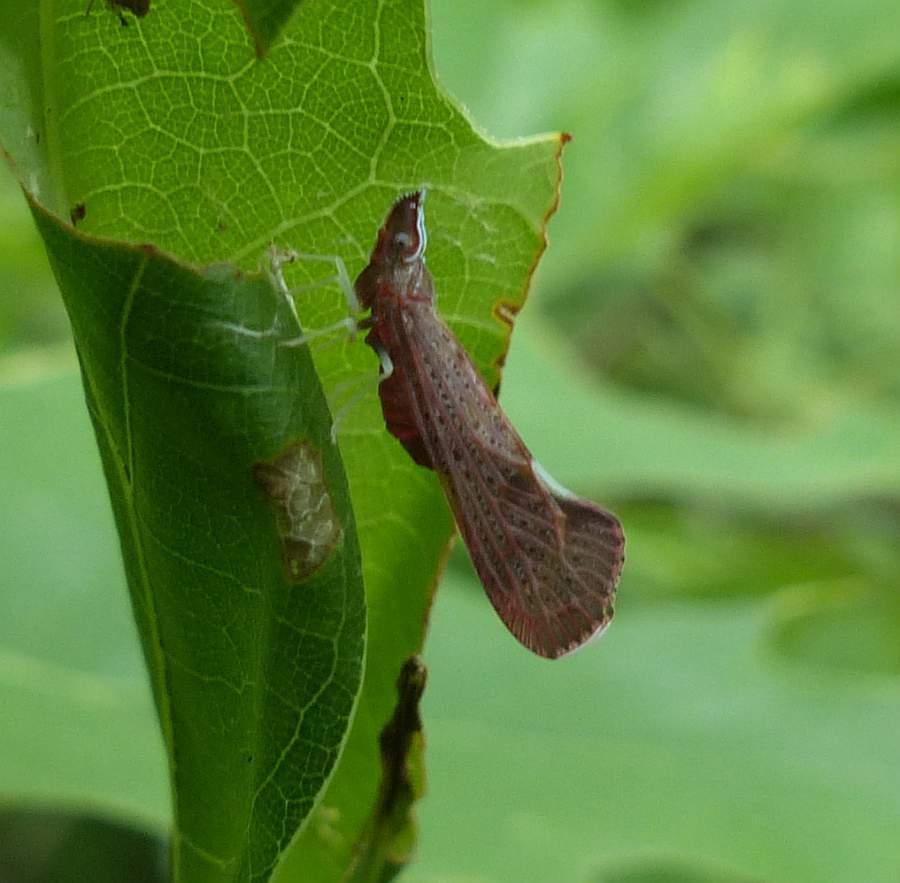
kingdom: Animalia
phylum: Arthropoda
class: Insecta
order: Hemiptera
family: Derbidae
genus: Apache
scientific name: Apache degeeri
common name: Red-fanned planthopper
